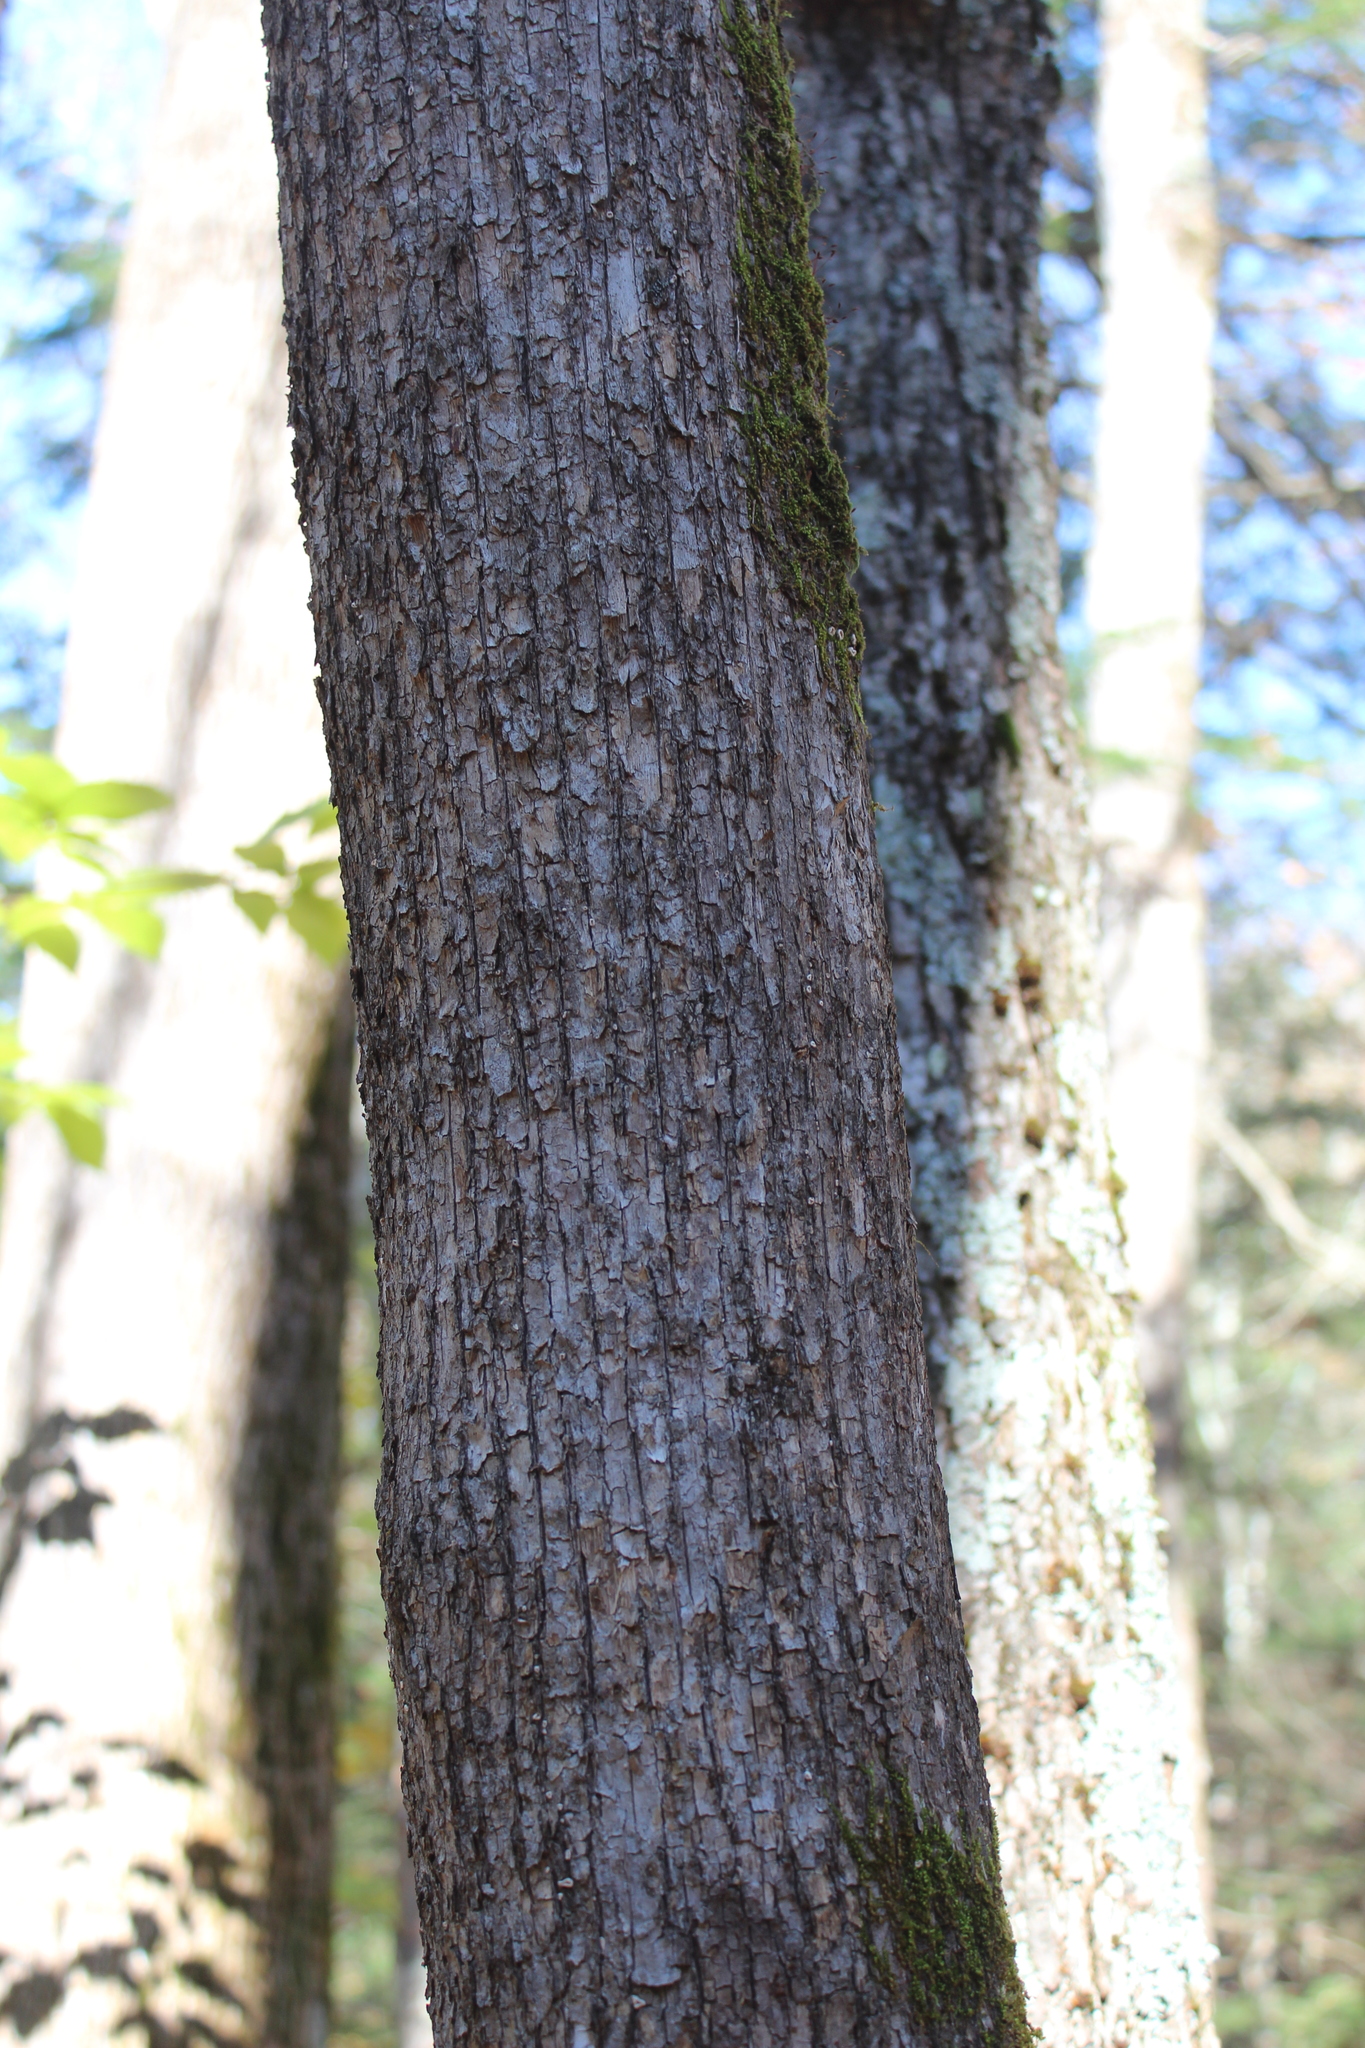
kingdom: Plantae
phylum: Tracheophyta
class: Magnoliopsida
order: Fagales
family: Betulaceae
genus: Ostrya
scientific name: Ostrya virginiana
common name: Ironwood
